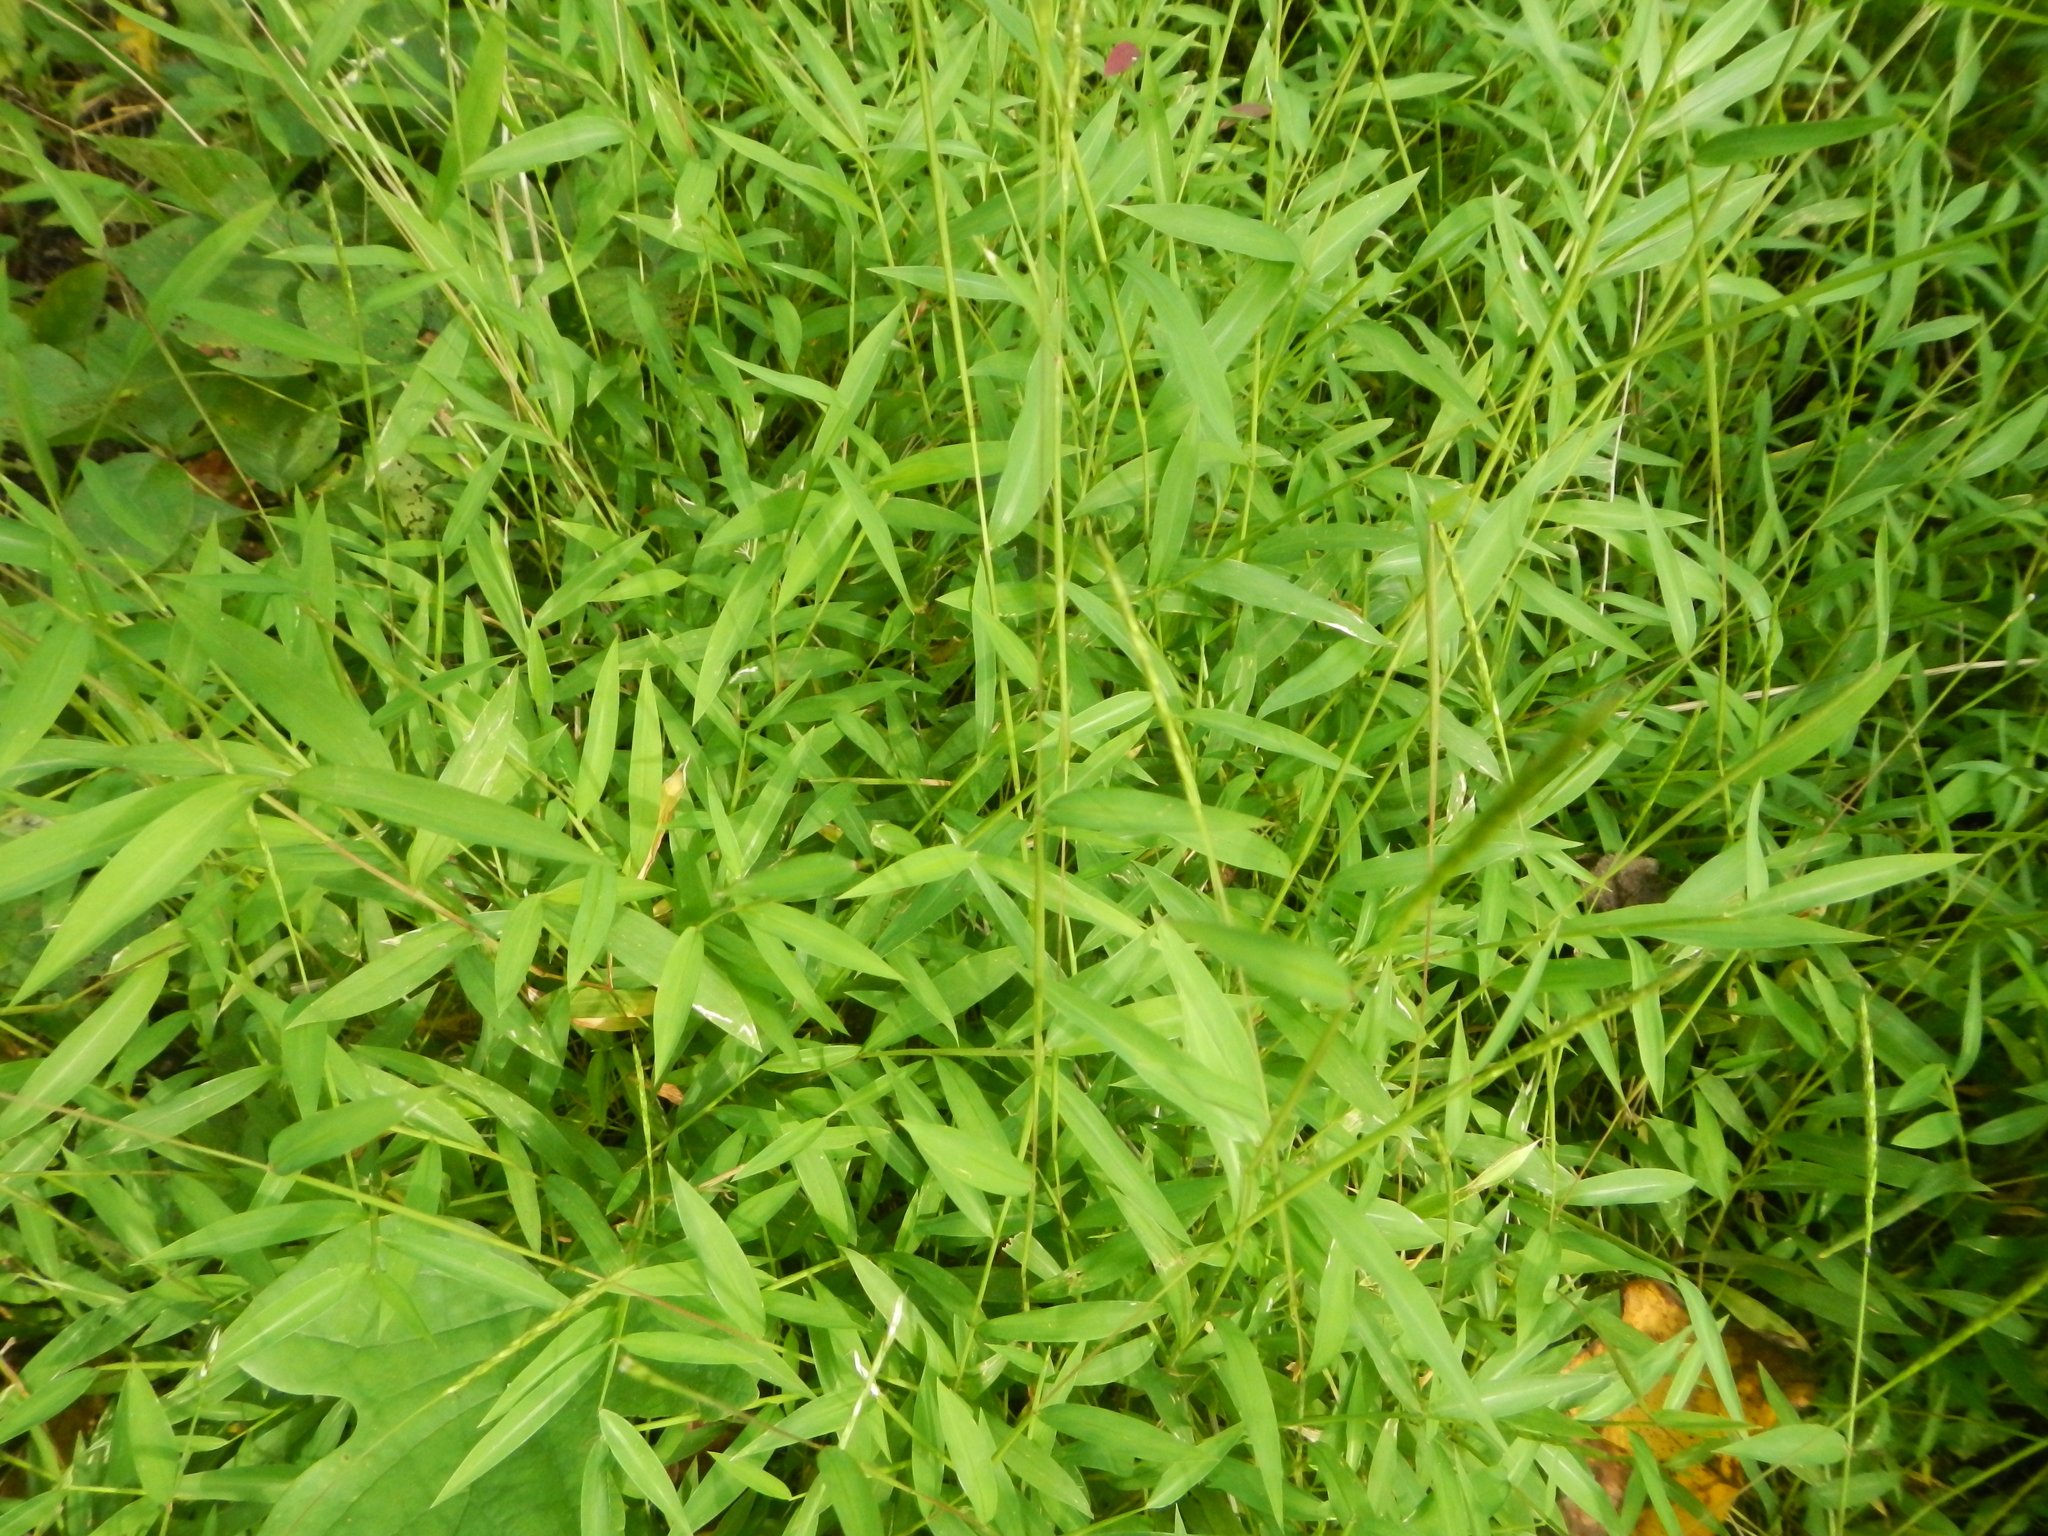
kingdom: Plantae
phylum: Tracheophyta
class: Liliopsida
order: Poales
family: Poaceae
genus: Microstegium
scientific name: Microstegium vimineum
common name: Japanese stiltgrass
